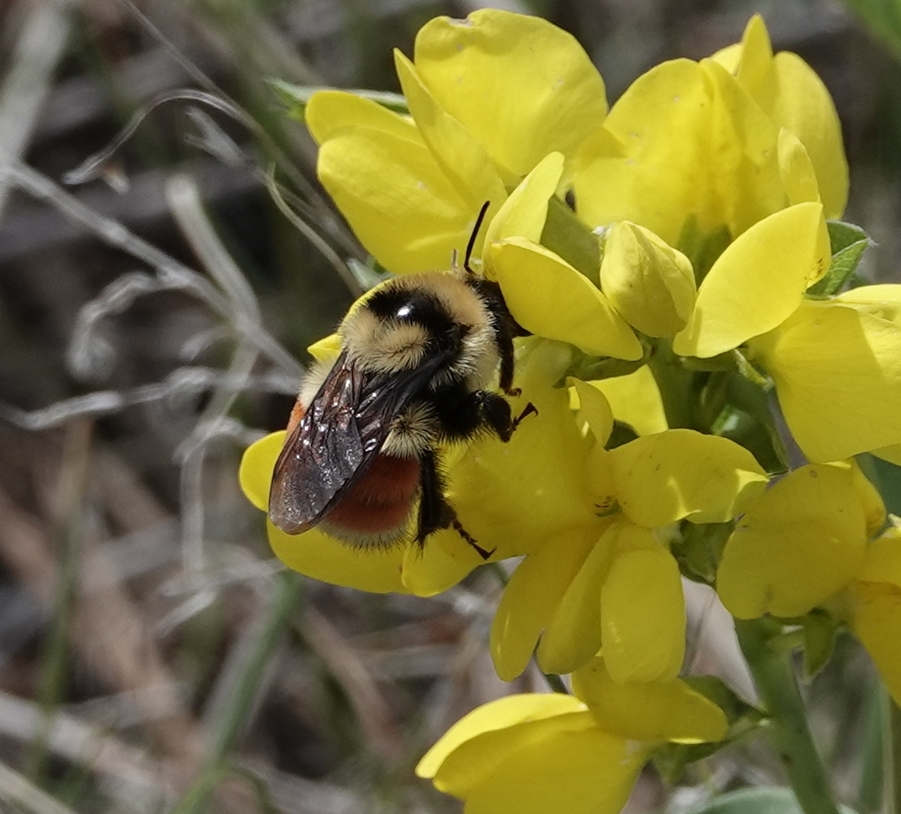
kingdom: Animalia
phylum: Arthropoda
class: Insecta
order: Hymenoptera
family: Apidae
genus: Bombus
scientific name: Bombus huntii
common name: Hunt bumble bee
